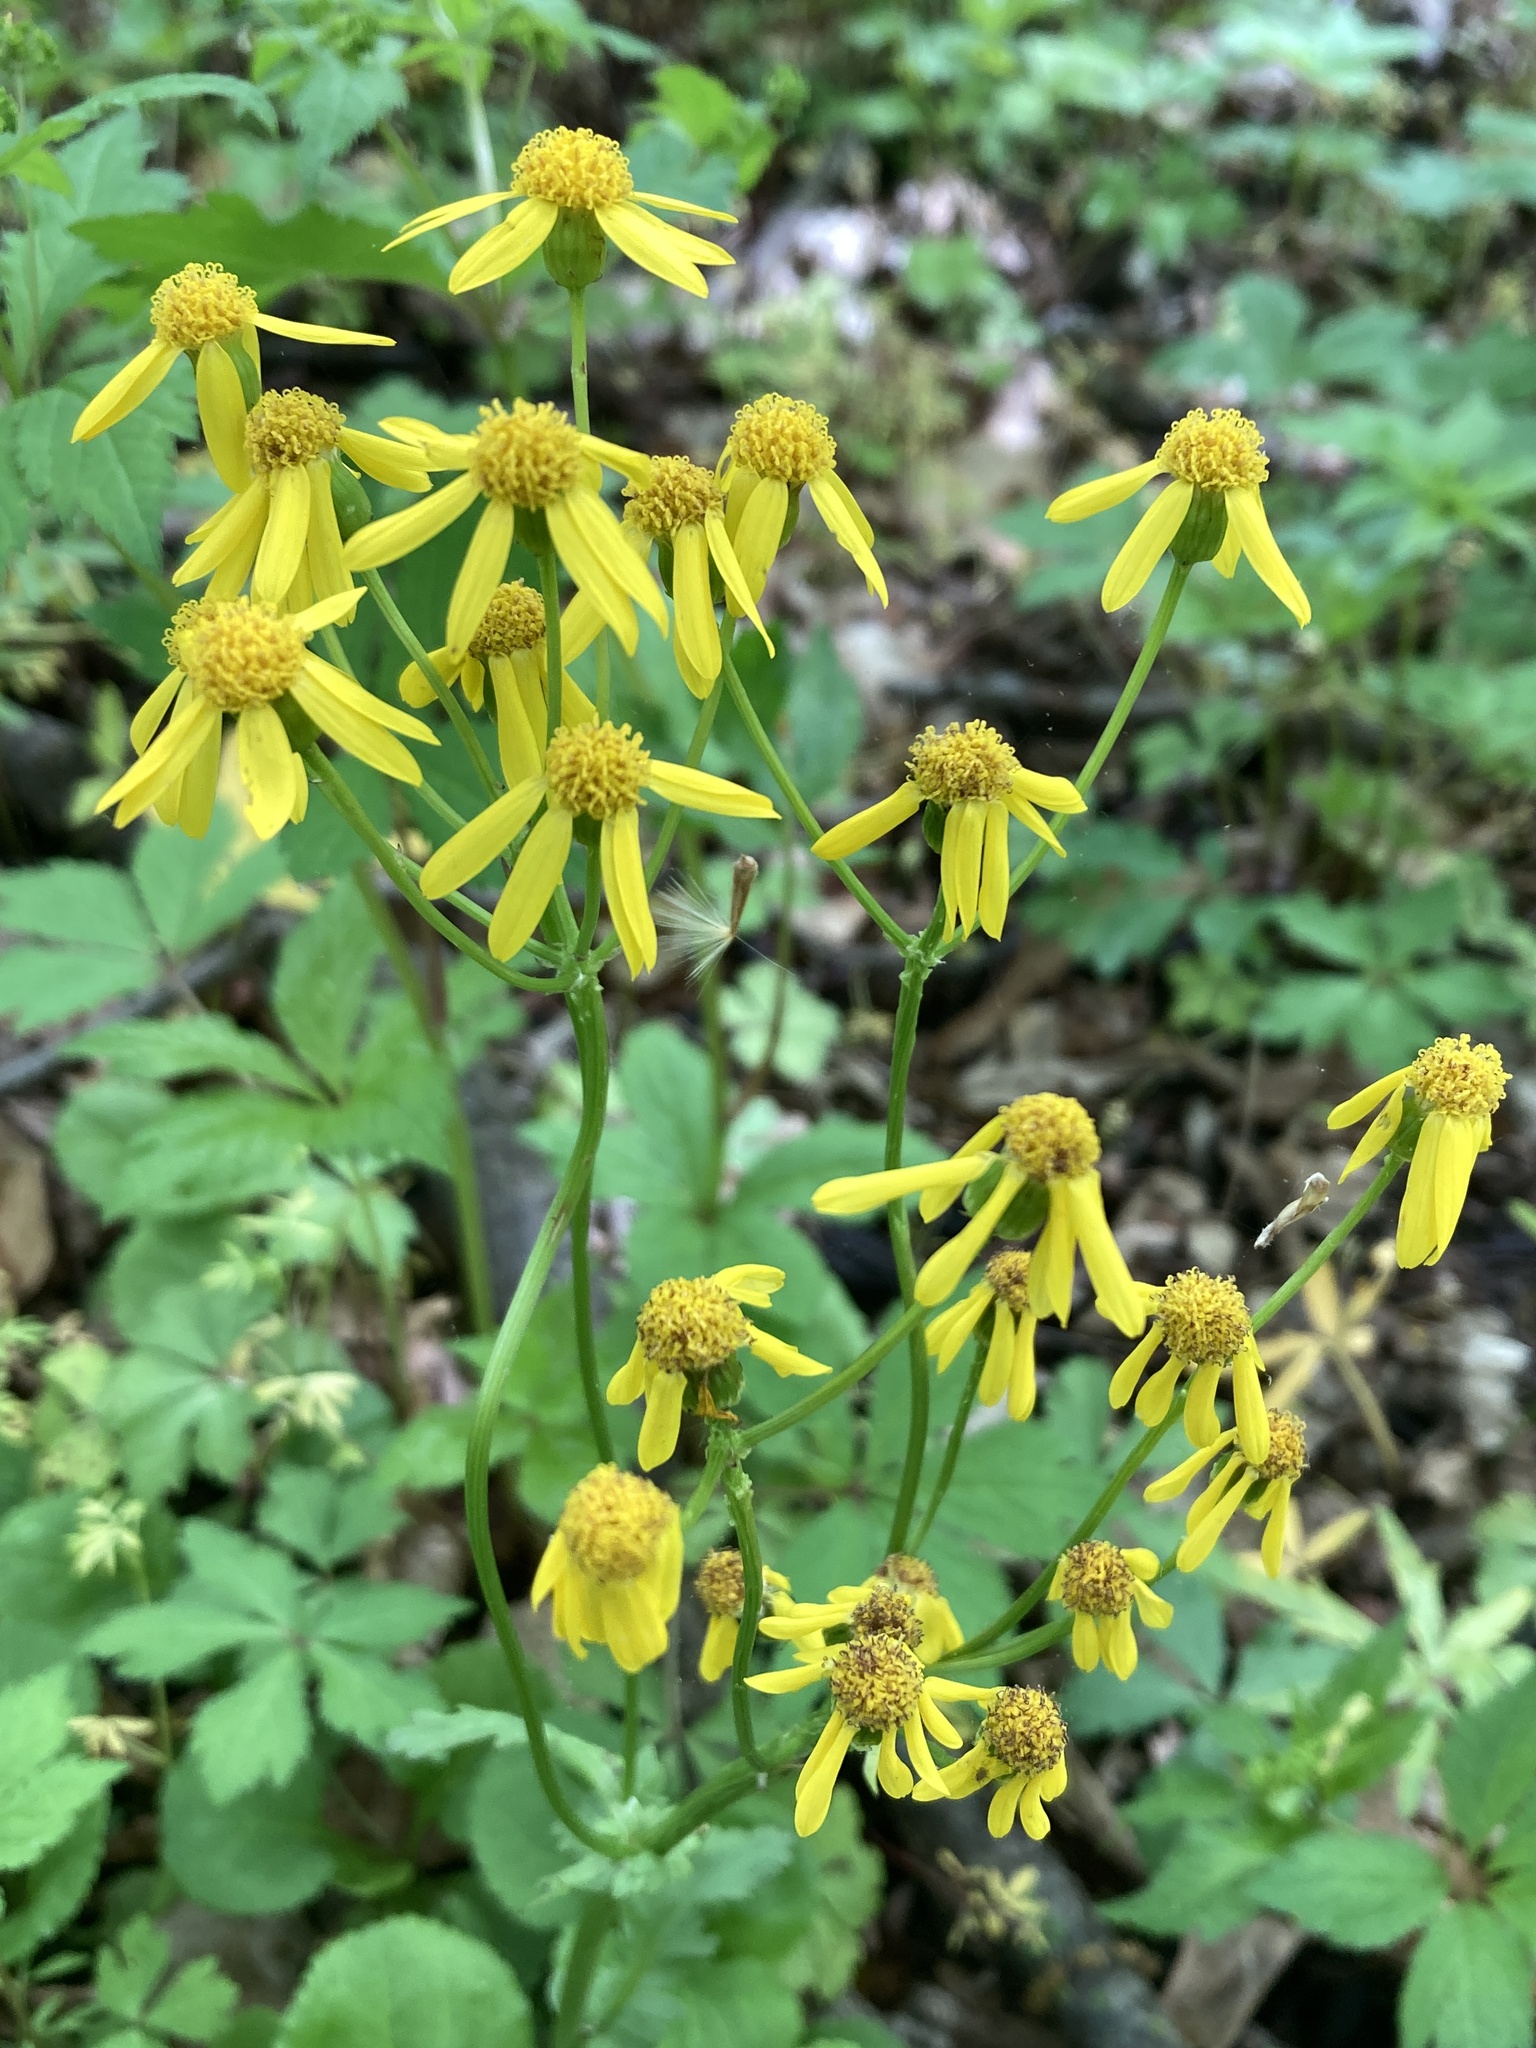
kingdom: Plantae
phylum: Tracheophyta
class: Magnoliopsida
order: Asterales
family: Asteraceae
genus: Packera
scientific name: Packera obovata
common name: Round-leaf ragwort
